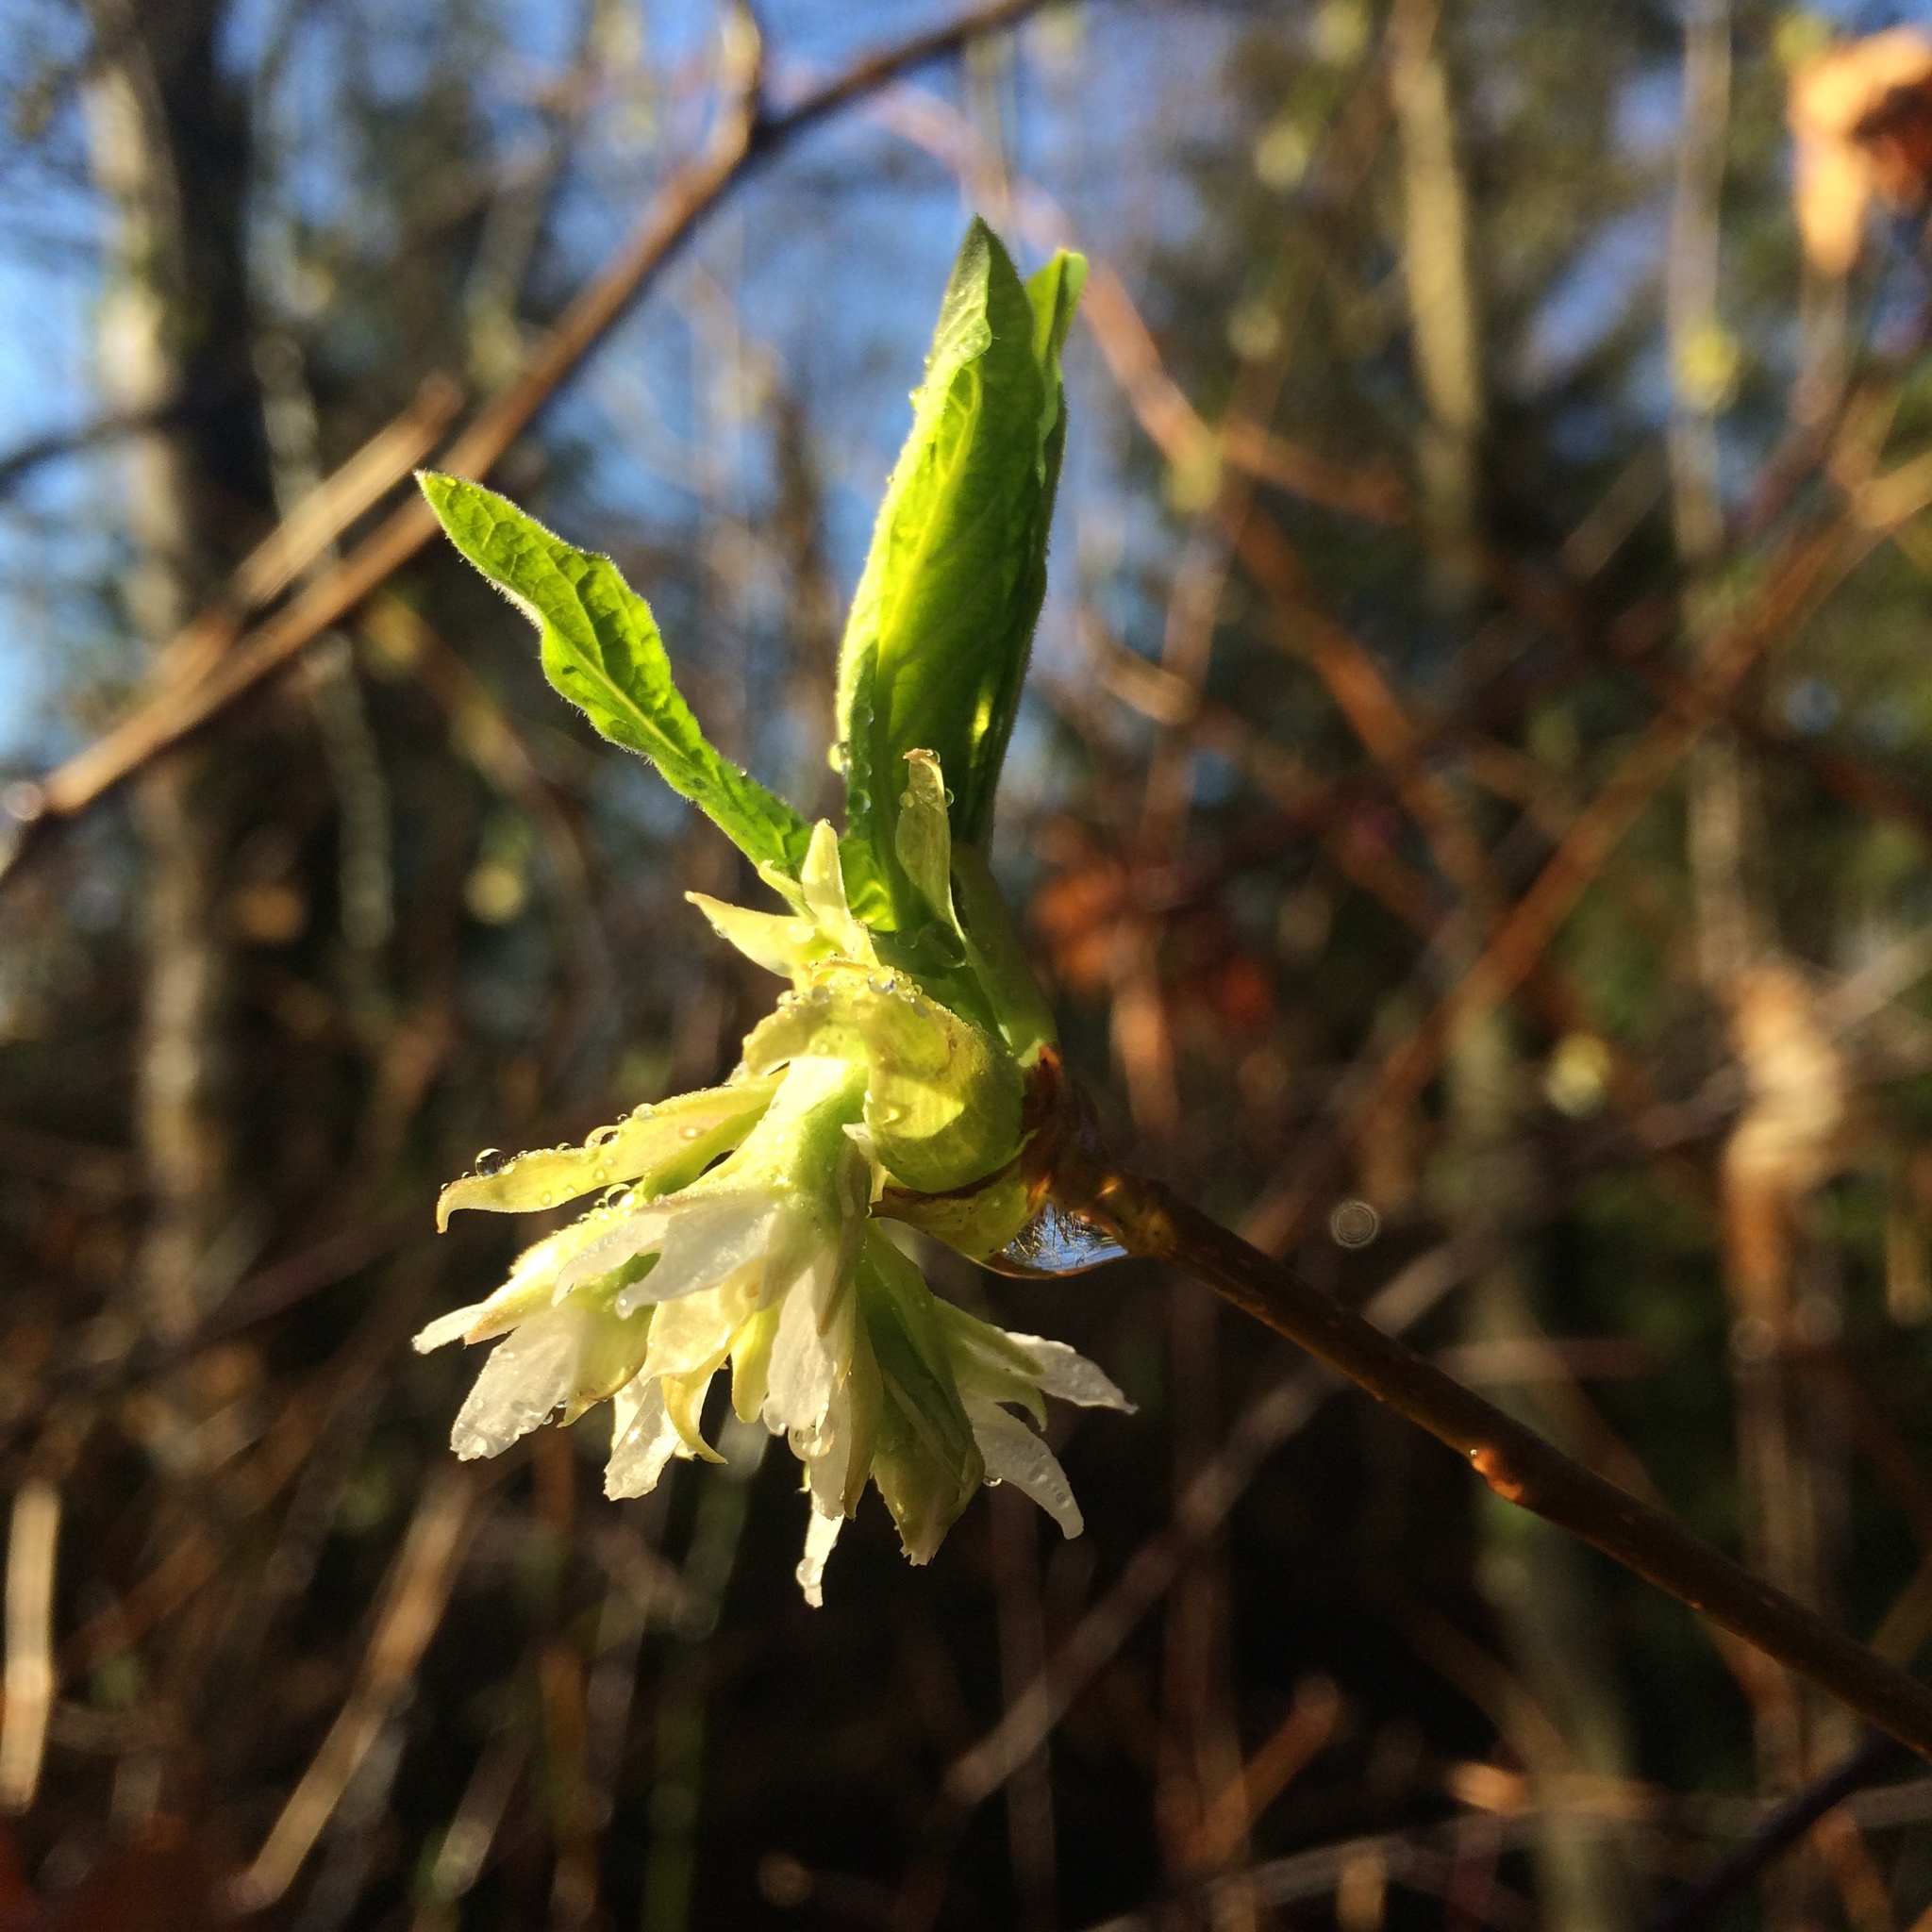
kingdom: Plantae
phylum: Tracheophyta
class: Magnoliopsida
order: Rosales
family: Rosaceae
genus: Oemleria
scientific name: Oemleria cerasiformis
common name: Osoberry
